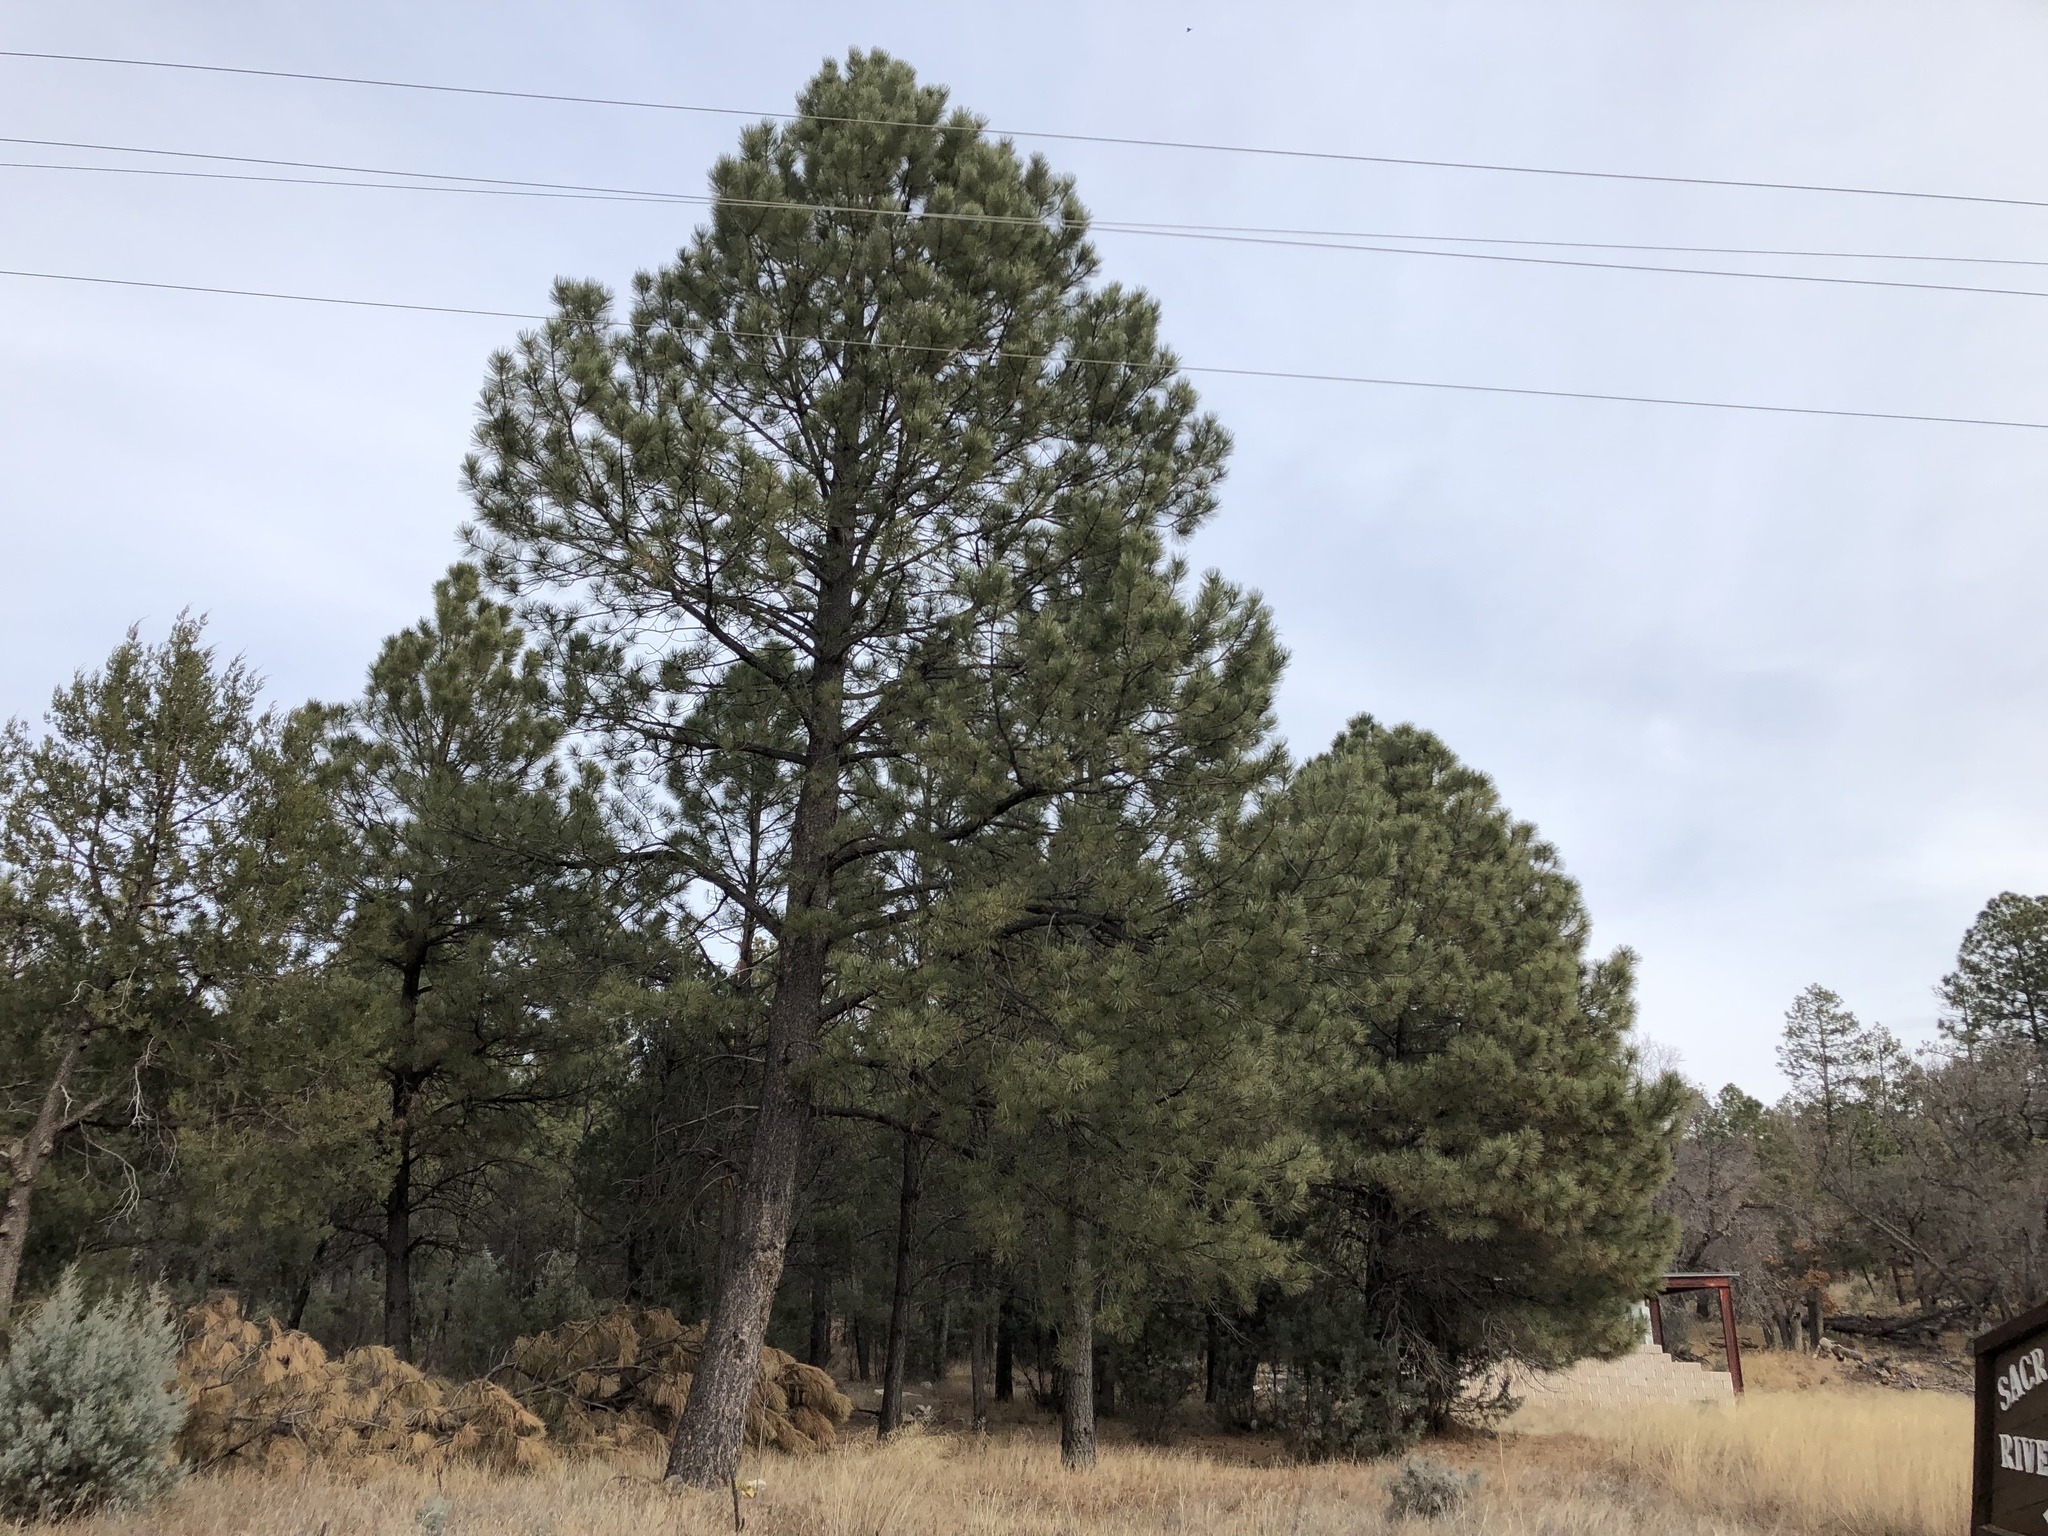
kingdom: Plantae
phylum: Tracheophyta
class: Pinopsida
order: Pinales
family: Pinaceae
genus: Pinus
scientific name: Pinus ponderosa
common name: Western yellow-pine
